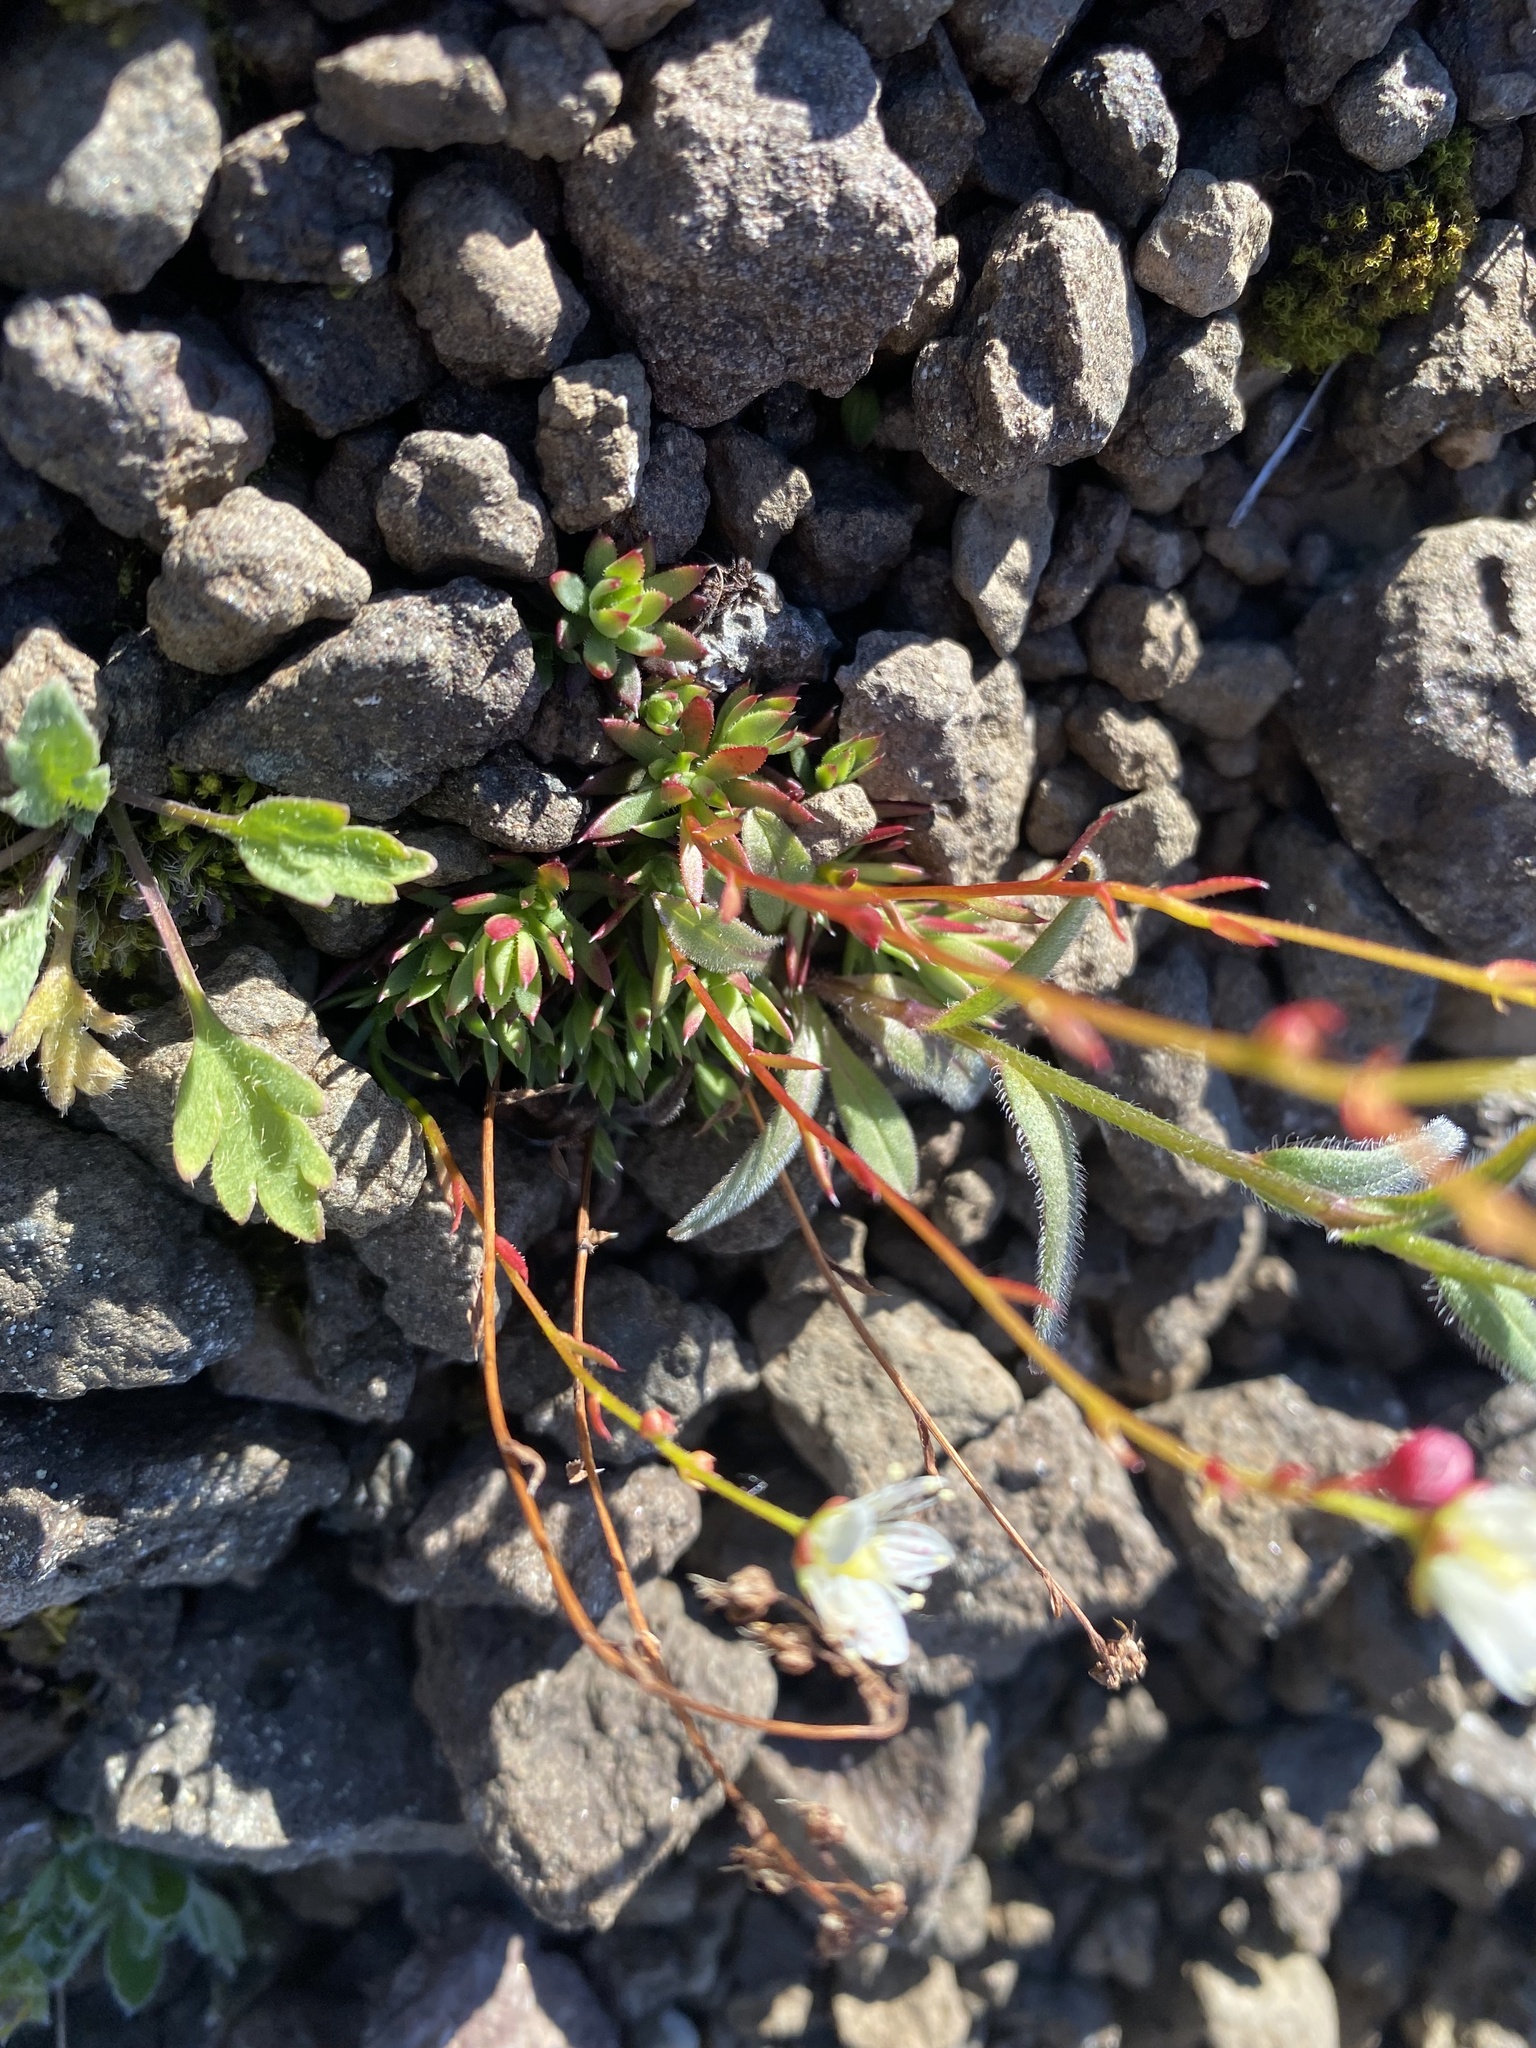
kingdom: Plantae
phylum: Tracheophyta
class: Magnoliopsida
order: Saxifragales
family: Saxifragaceae
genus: Saxifraga
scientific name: Saxifraga
